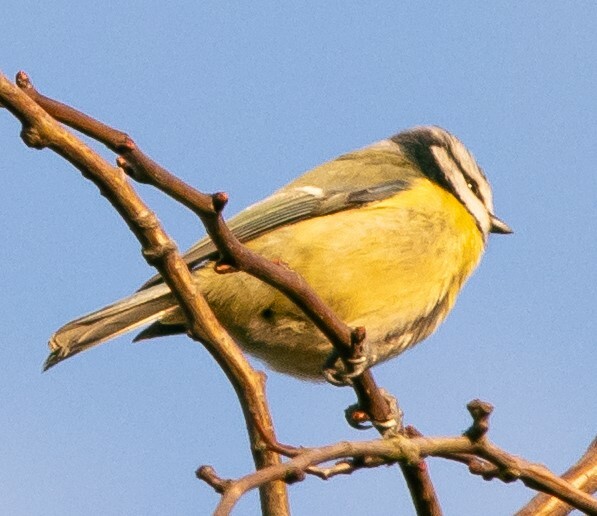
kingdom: Animalia
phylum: Chordata
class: Aves
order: Passeriformes
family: Paridae
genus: Cyanistes
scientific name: Cyanistes caeruleus
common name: Eurasian blue tit
